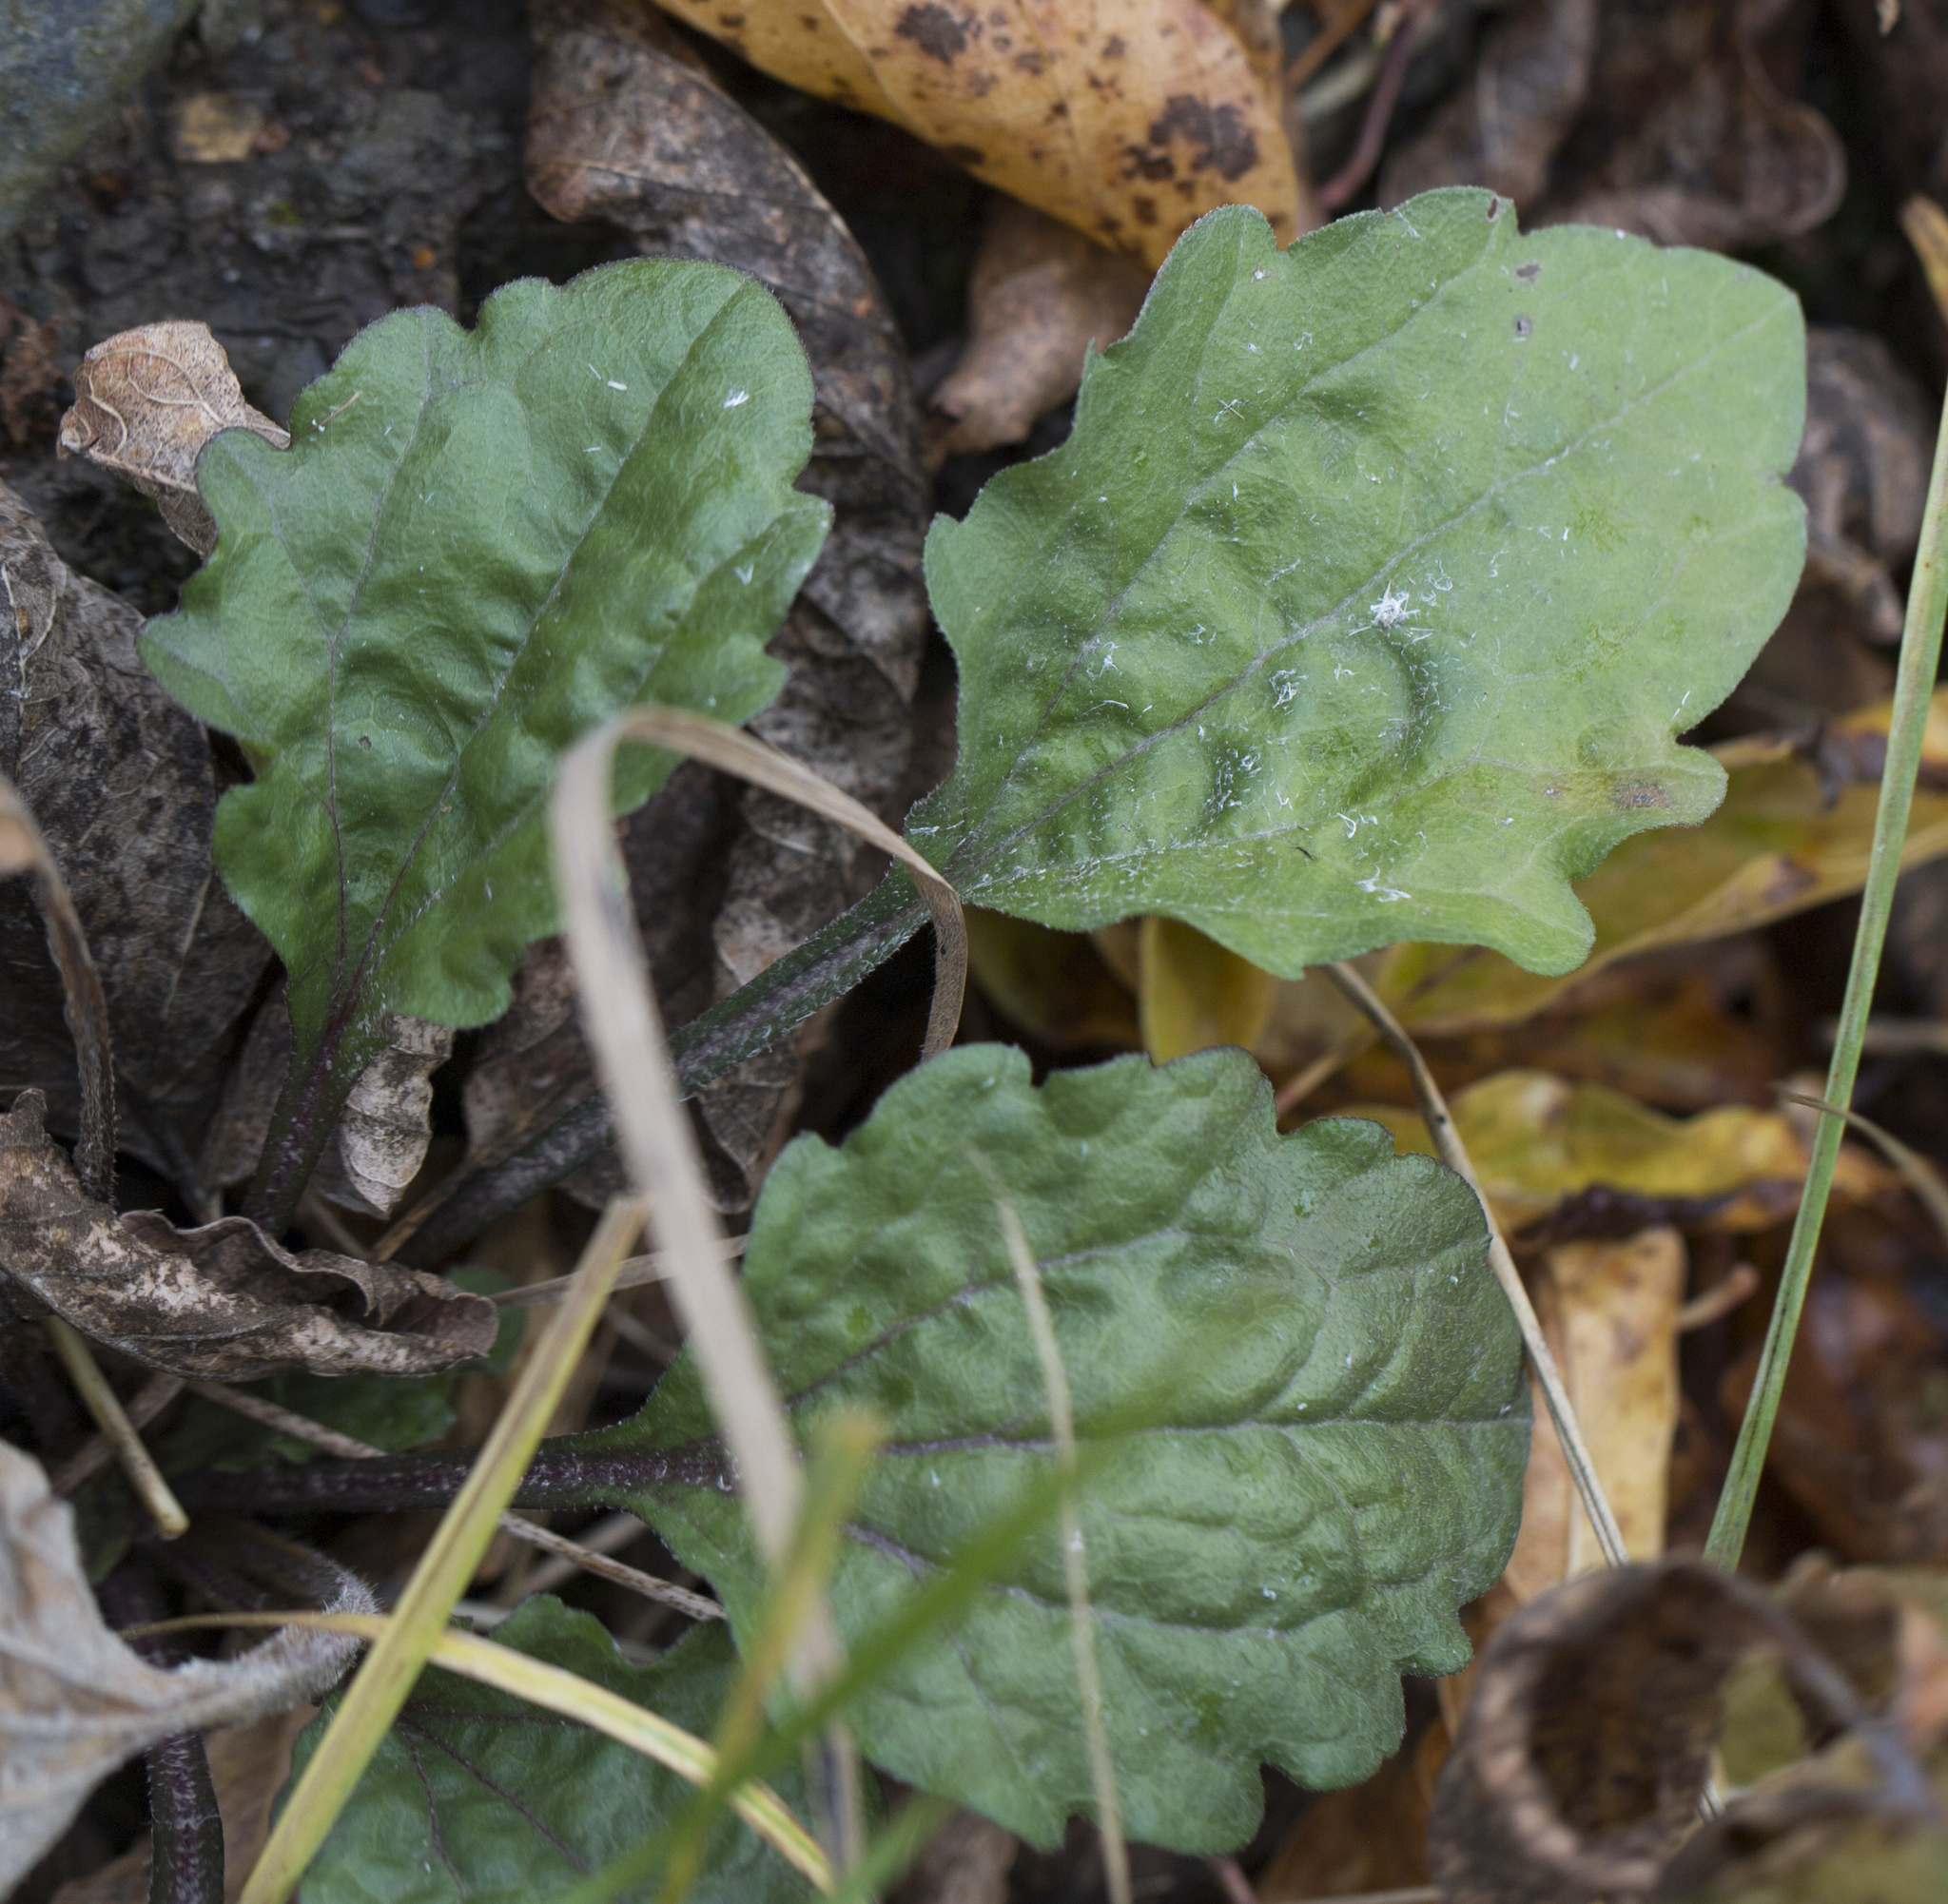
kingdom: Plantae
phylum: Tracheophyta
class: Magnoliopsida
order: Asterales
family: Asteraceae
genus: Erigeron
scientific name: Erigeron annuus
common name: Tall fleabane
